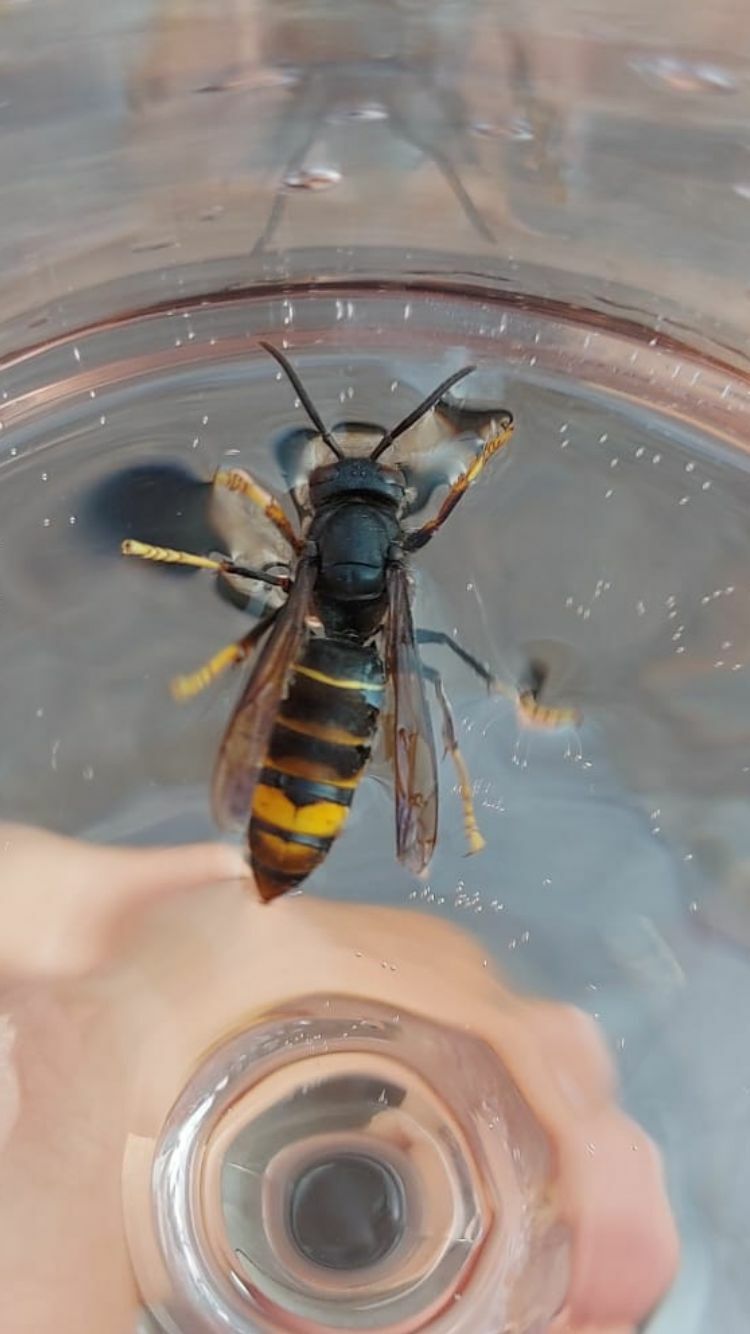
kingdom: Animalia
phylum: Arthropoda
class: Insecta
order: Hymenoptera
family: Vespidae
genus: Vespa
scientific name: Vespa velutina
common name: Asian hornet
